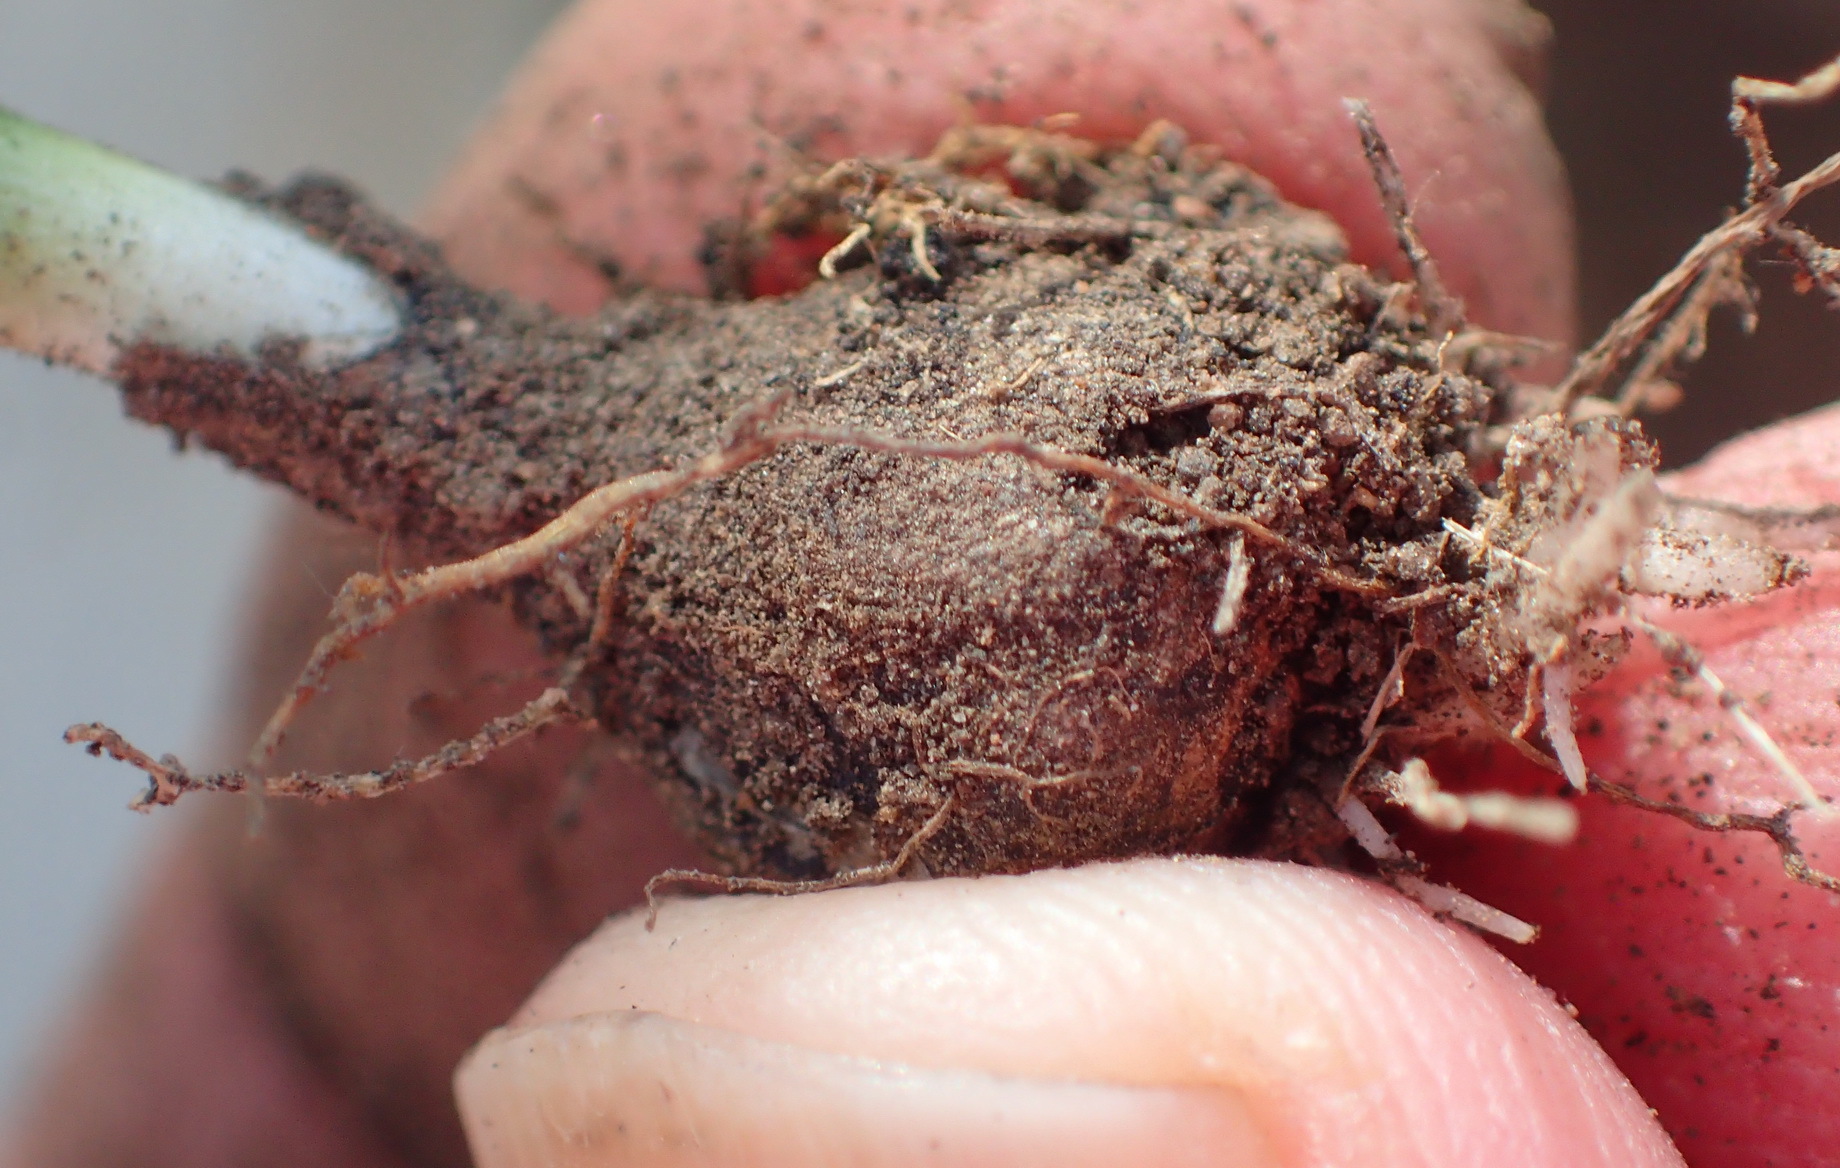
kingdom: Plantae
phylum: Tracheophyta
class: Liliopsida
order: Asparagales
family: Asparagaceae
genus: Drimia
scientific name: Drimia platyphylla
